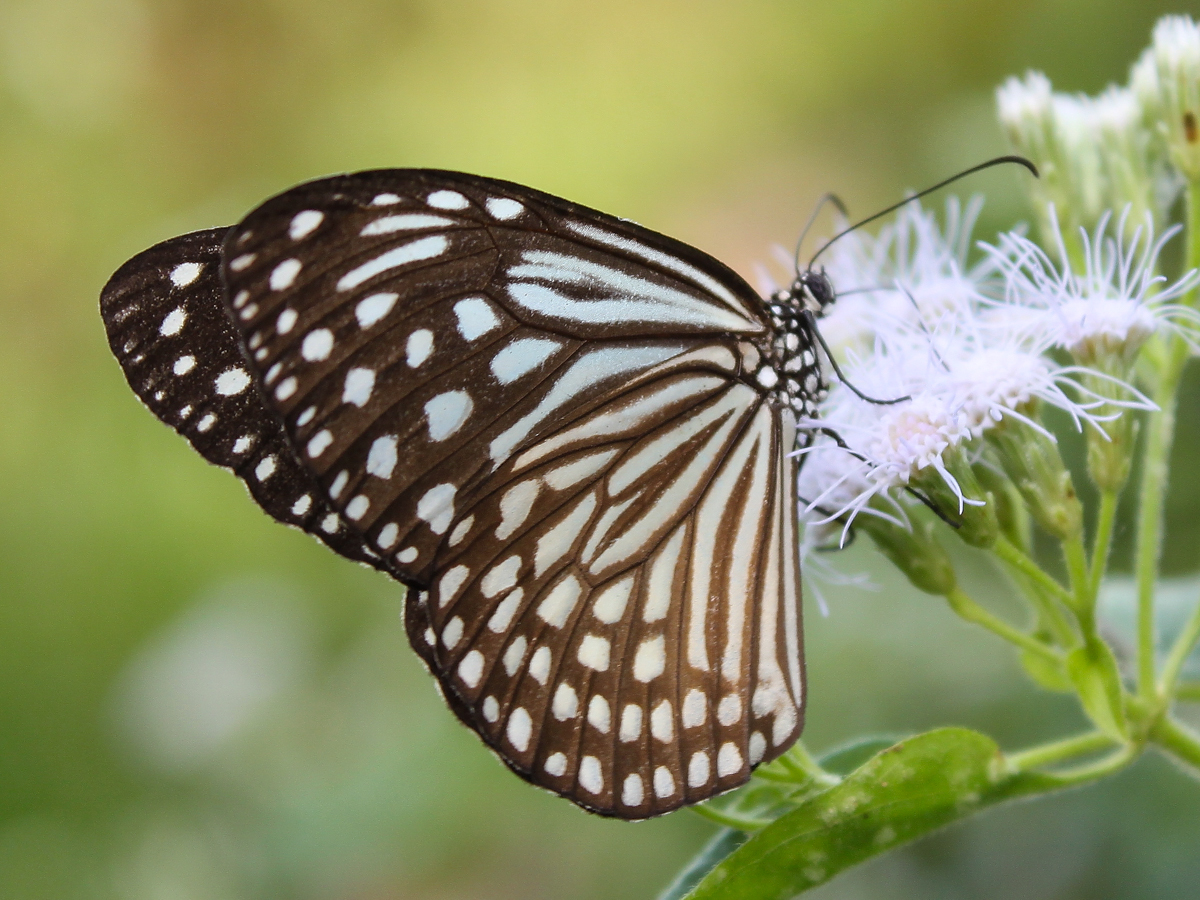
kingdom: Animalia
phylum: Arthropoda
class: Insecta
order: Lepidoptera
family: Nymphalidae
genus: Parantica
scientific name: Parantica agleoides
